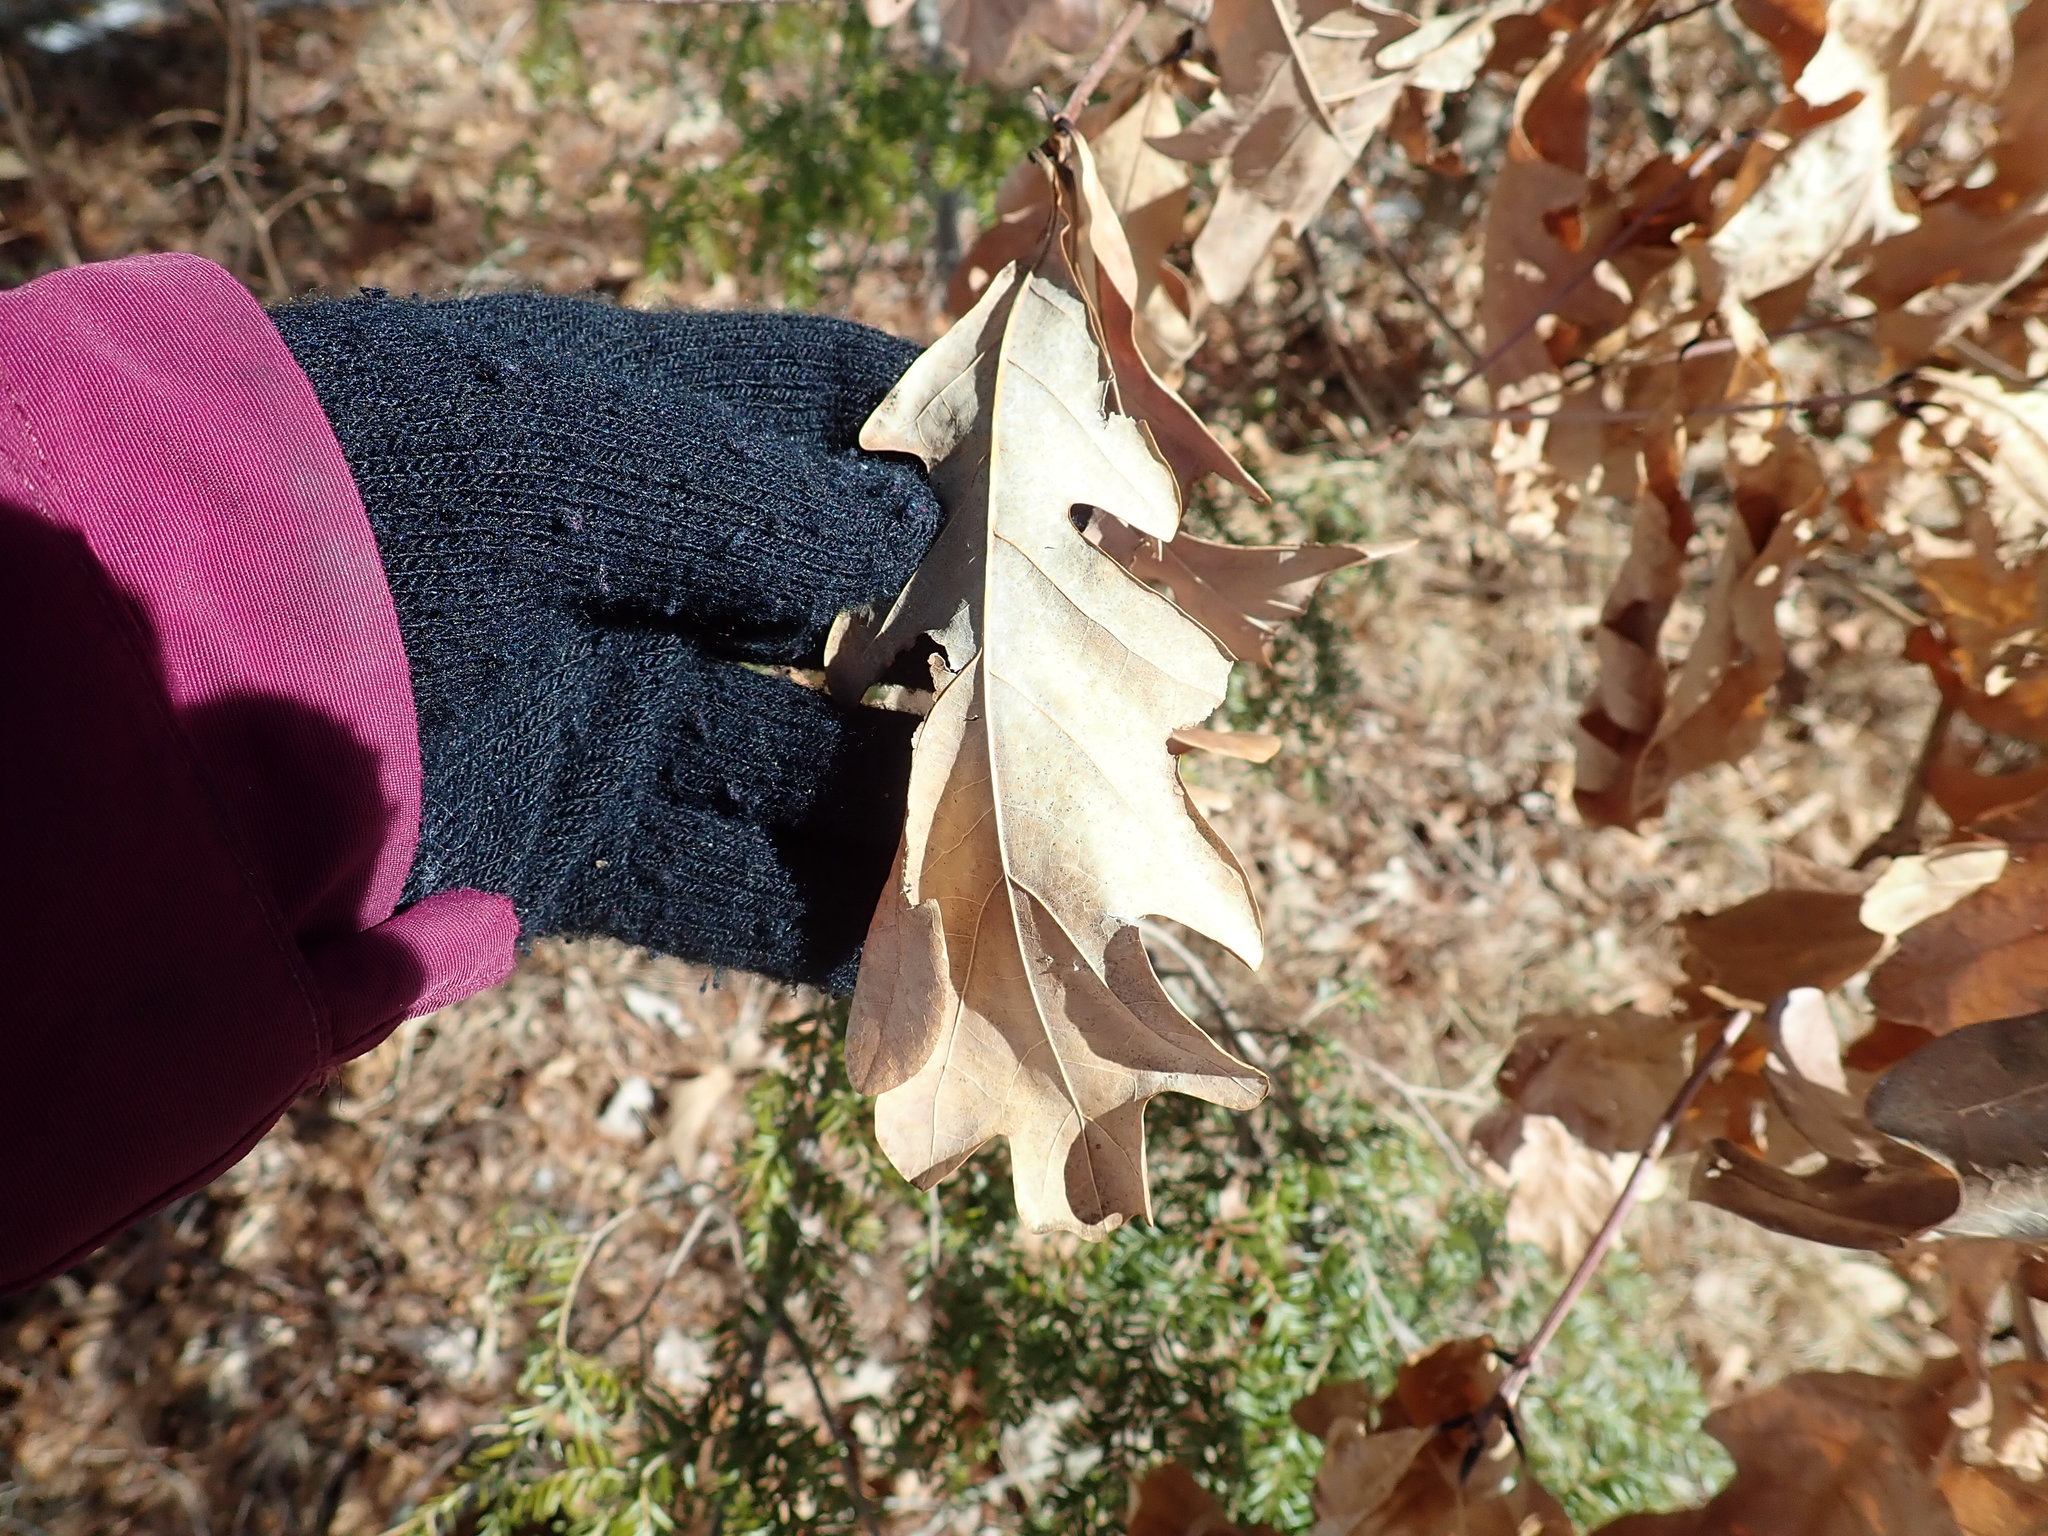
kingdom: Plantae
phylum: Tracheophyta
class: Magnoliopsida
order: Fagales
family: Fagaceae
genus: Quercus
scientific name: Quercus alba
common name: White oak
